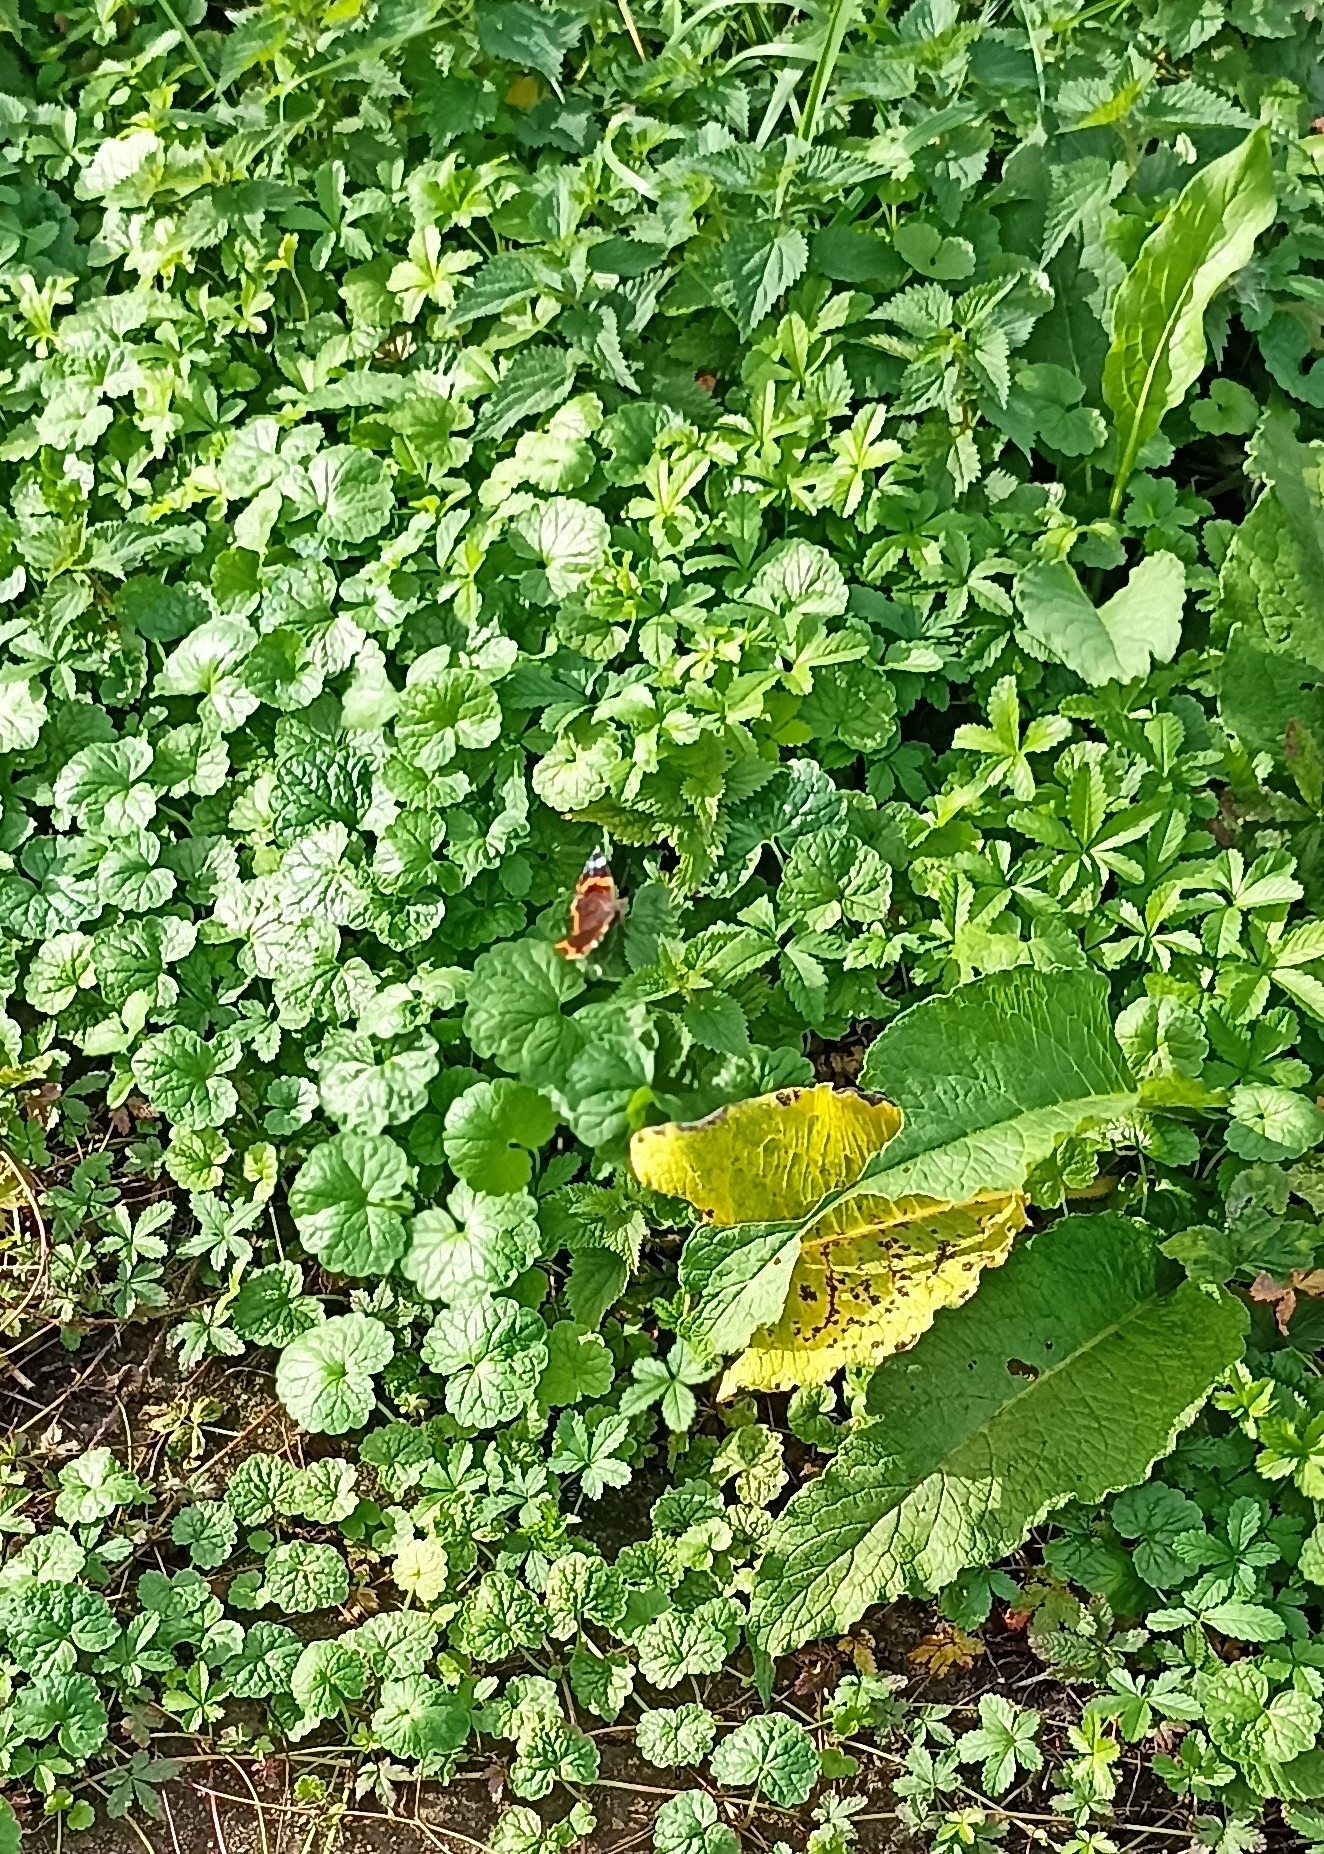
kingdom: Animalia
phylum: Arthropoda
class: Insecta
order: Lepidoptera
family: Nymphalidae
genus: Vanessa
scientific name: Vanessa atalanta
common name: Red admiral
